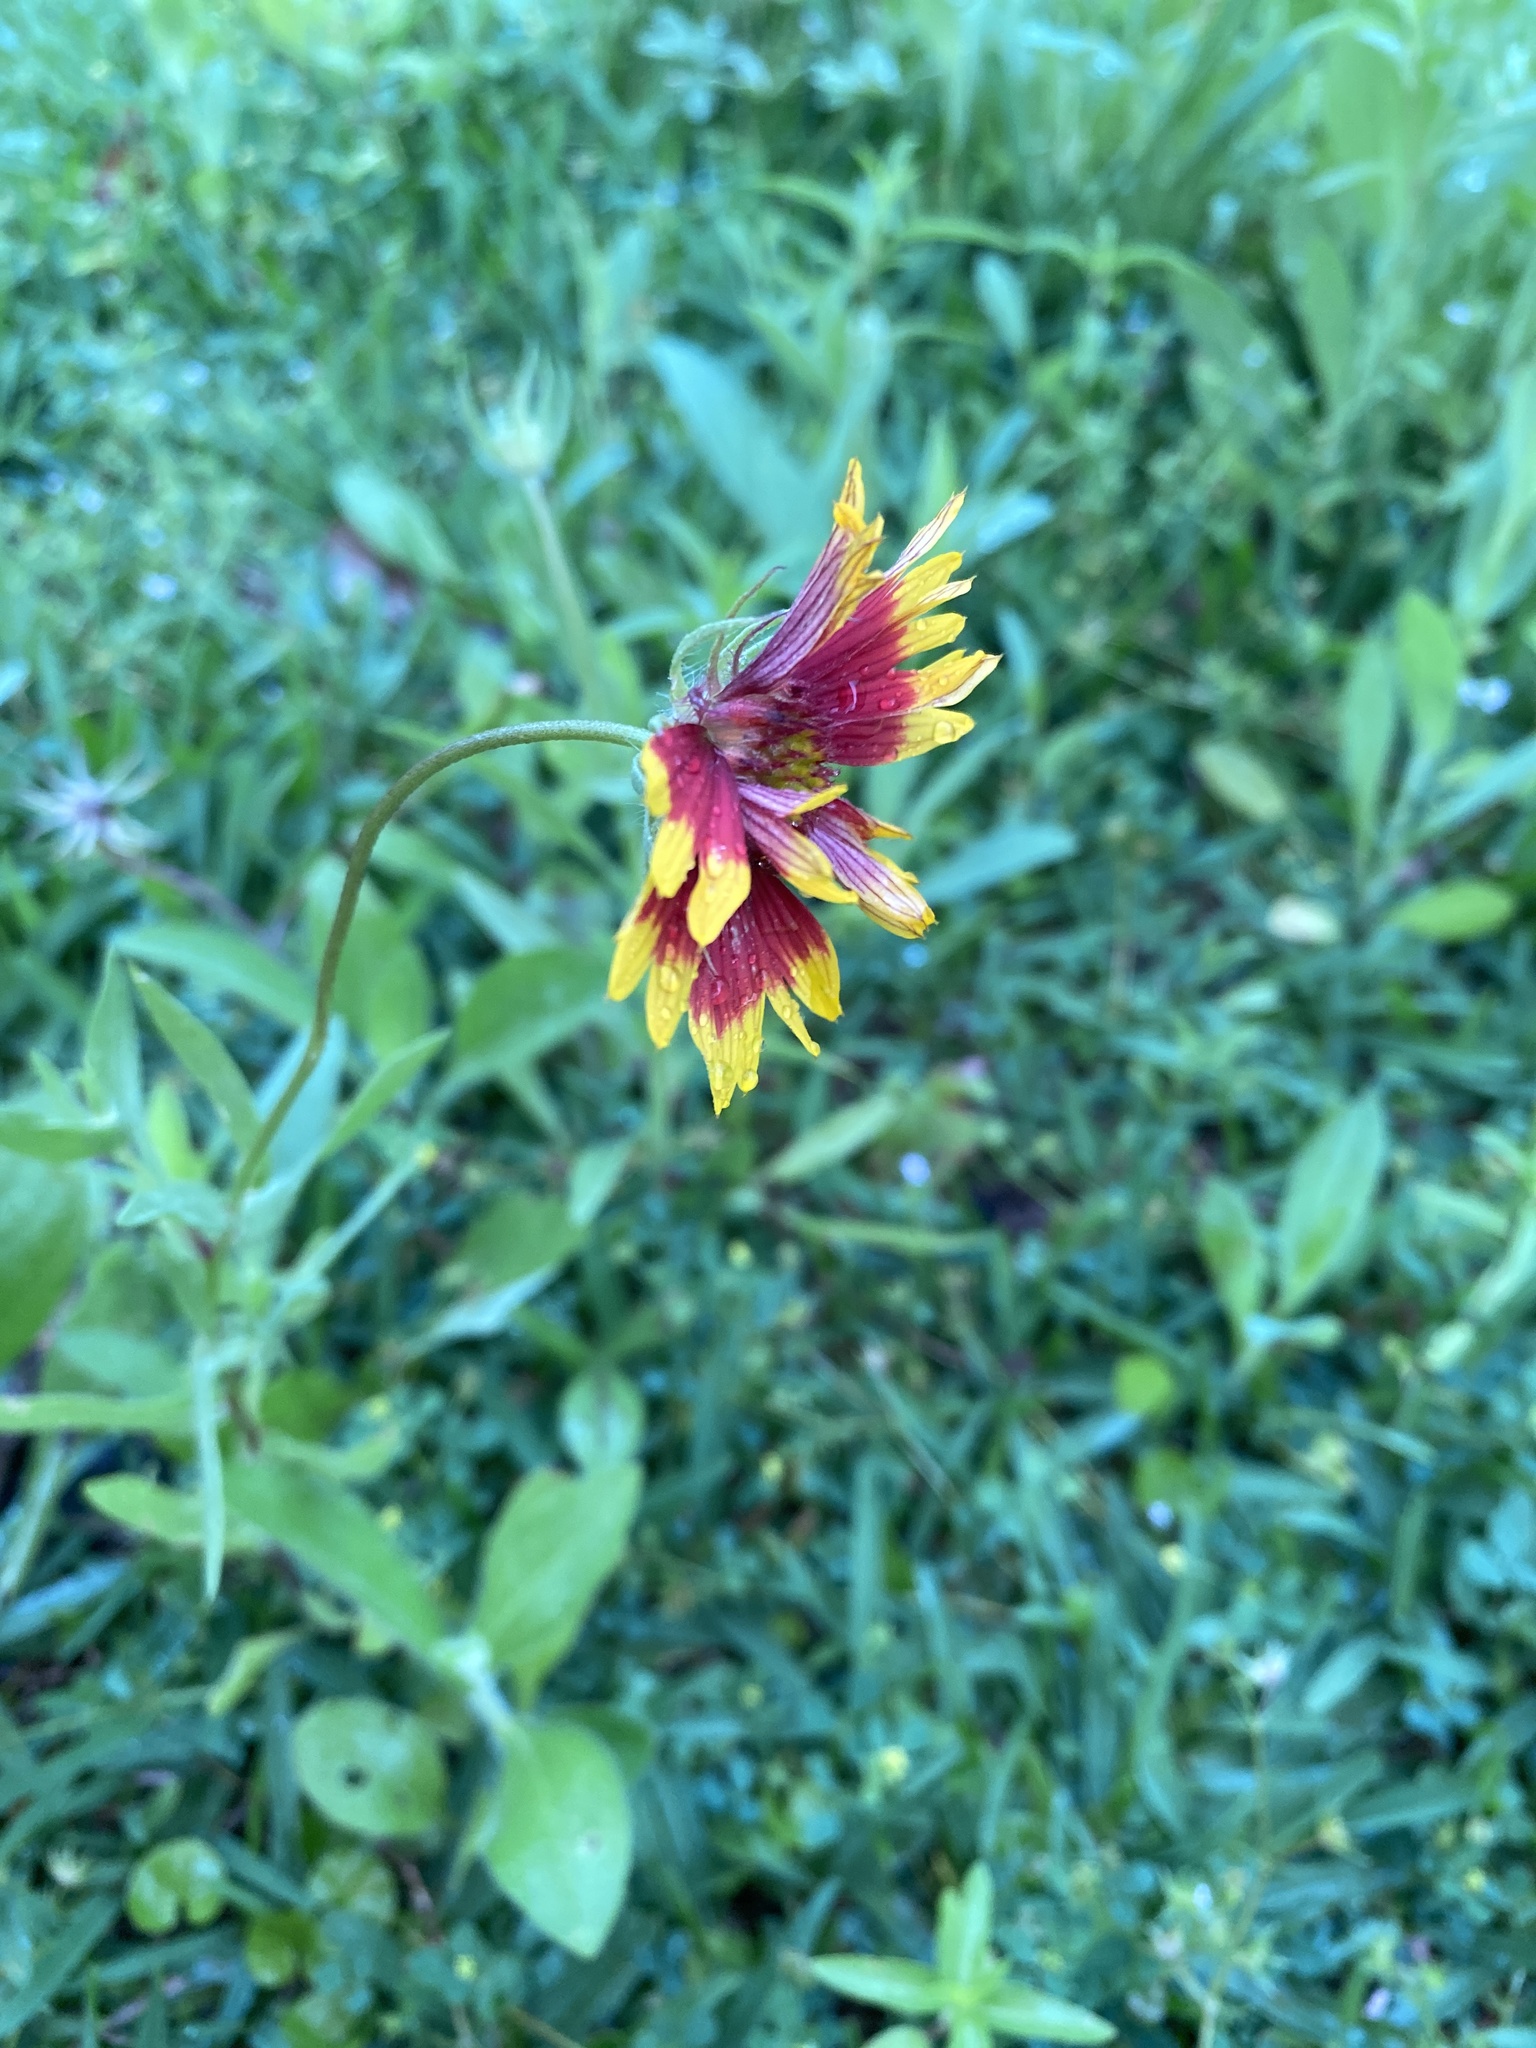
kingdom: Plantae
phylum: Tracheophyta
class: Magnoliopsida
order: Asterales
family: Asteraceae
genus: Gaillardia
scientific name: Gaillardia pulchella
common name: Firewheel
